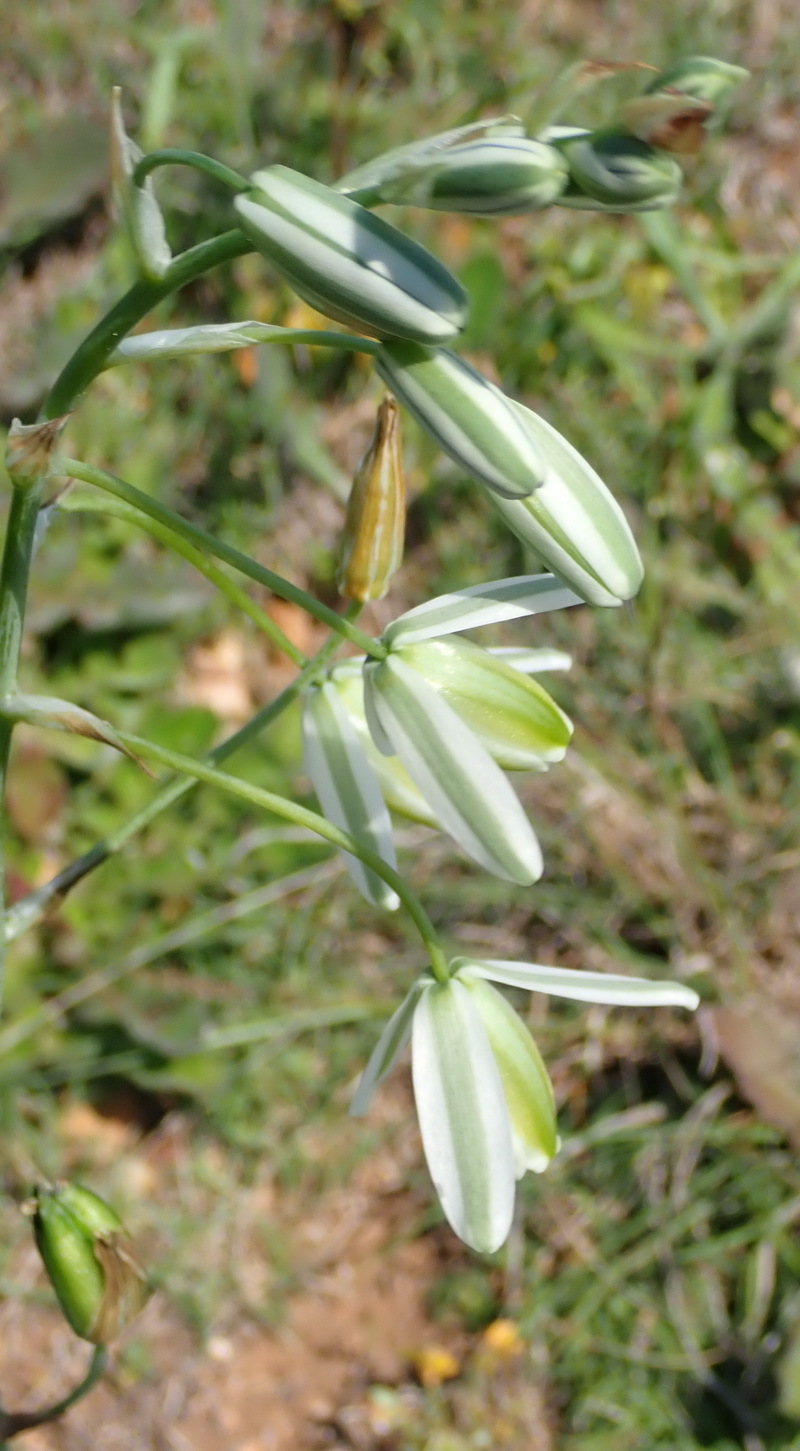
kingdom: Plantae
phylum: Tracheophyta
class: Liliopsida
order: Asparagales
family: Asparagaceae
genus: Albuca
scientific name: Albuca canadensis
